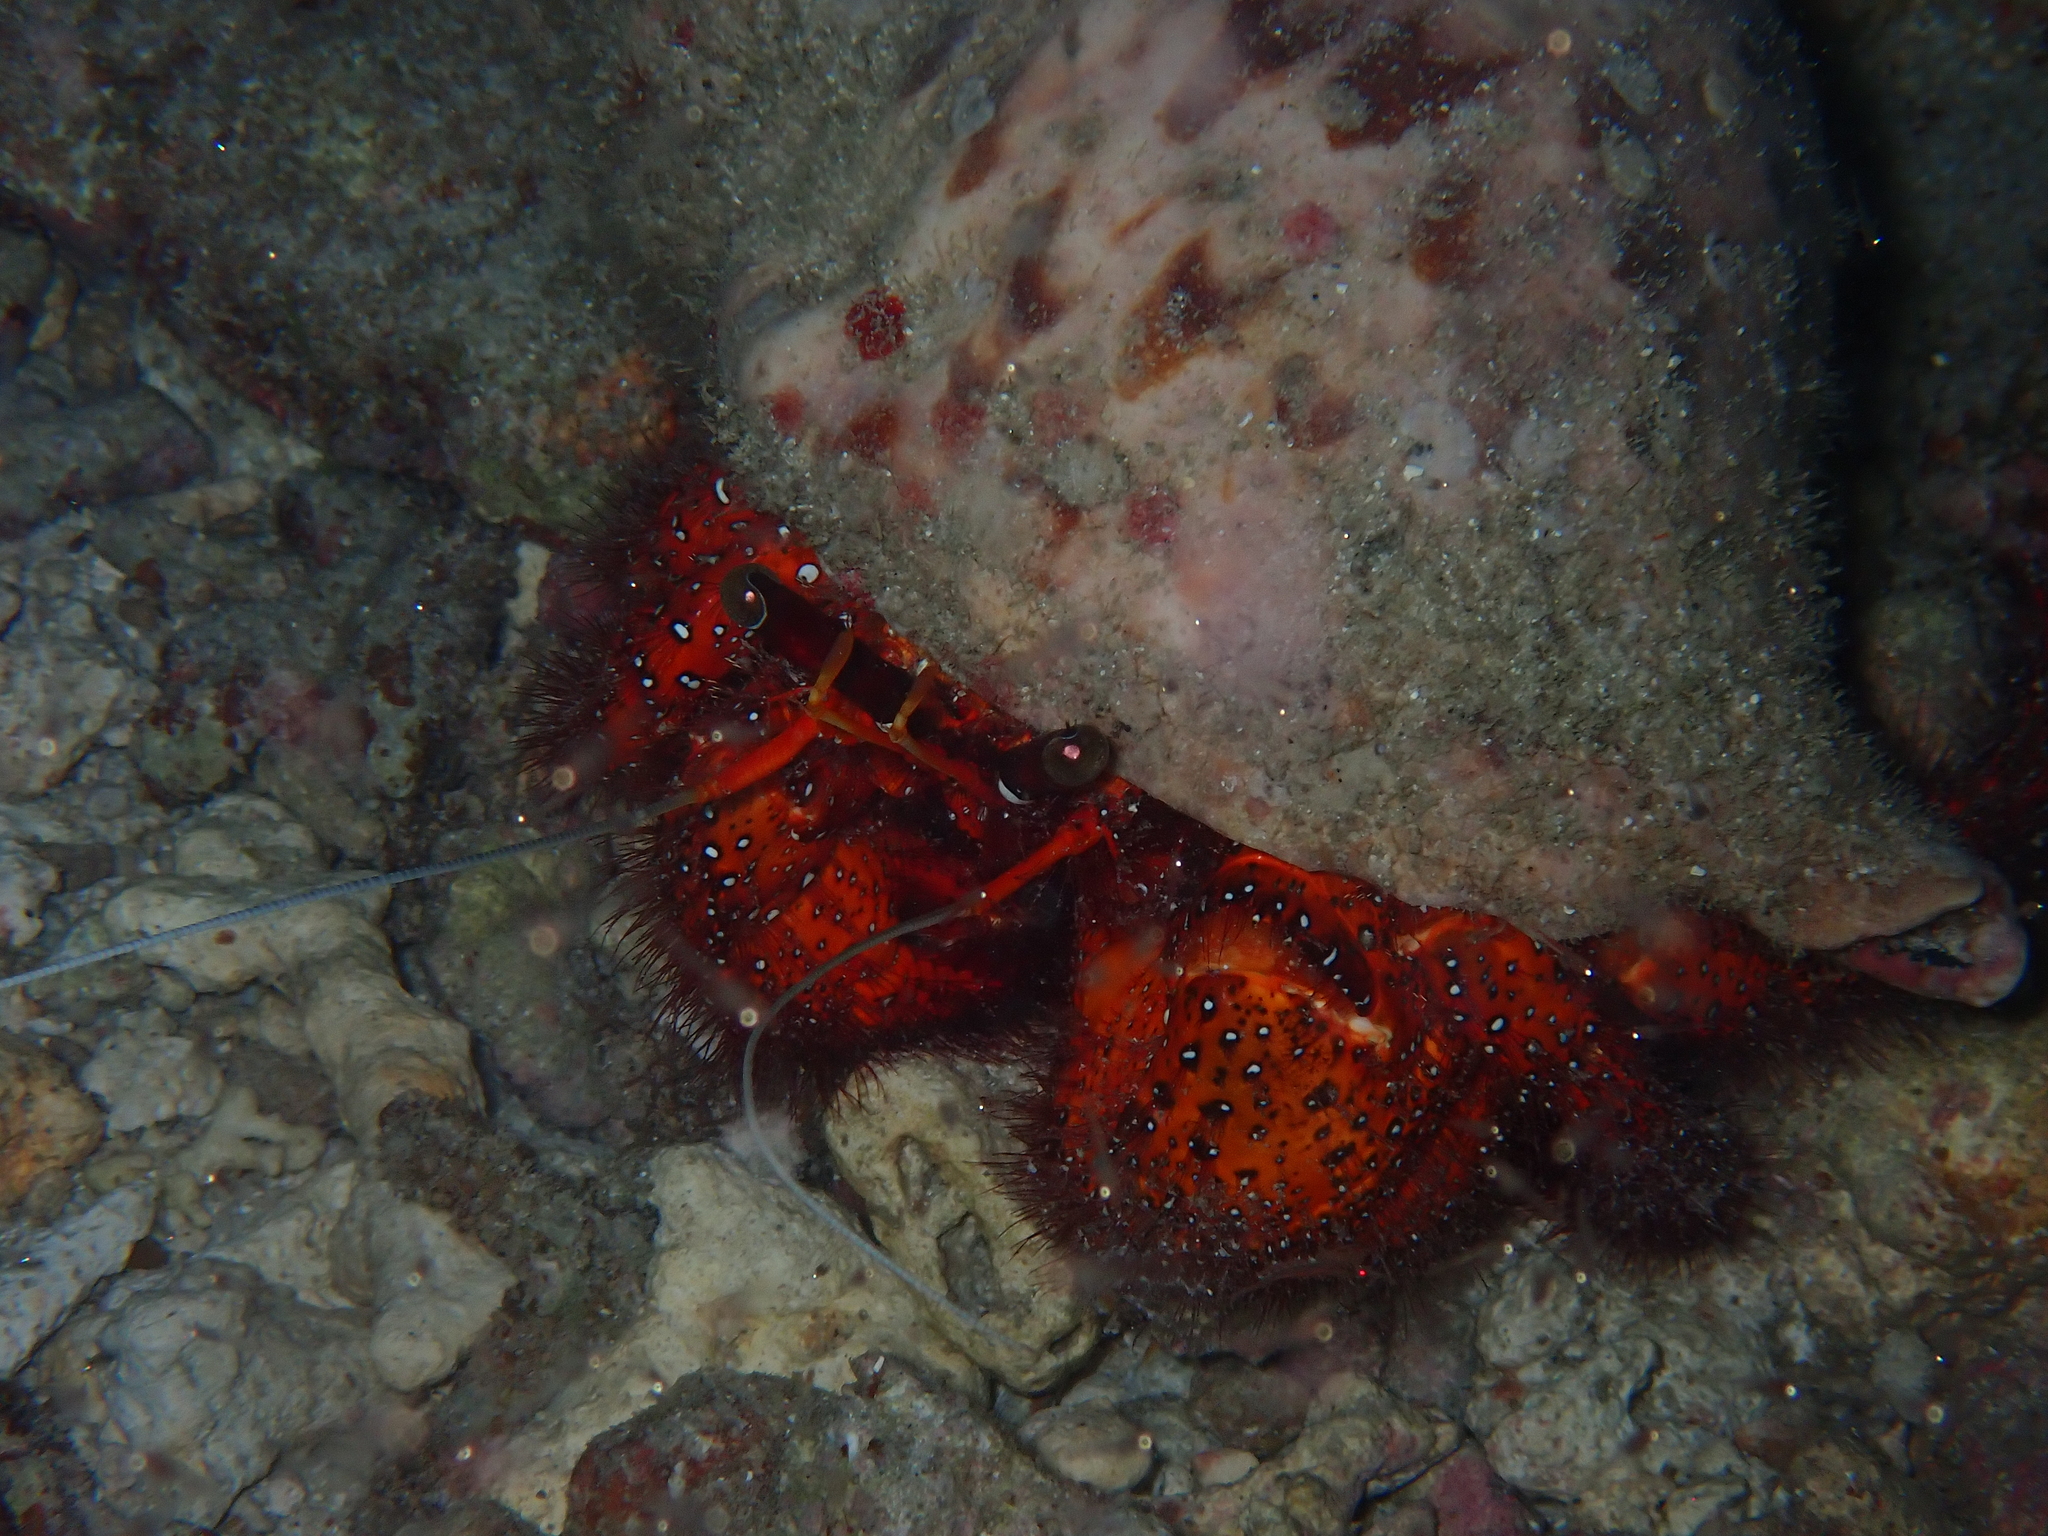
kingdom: Animalia
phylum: Arthropoda
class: Malacostraca
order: Decapoda
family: Diogenidae
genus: Dardanus
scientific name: Dardanus megistos
